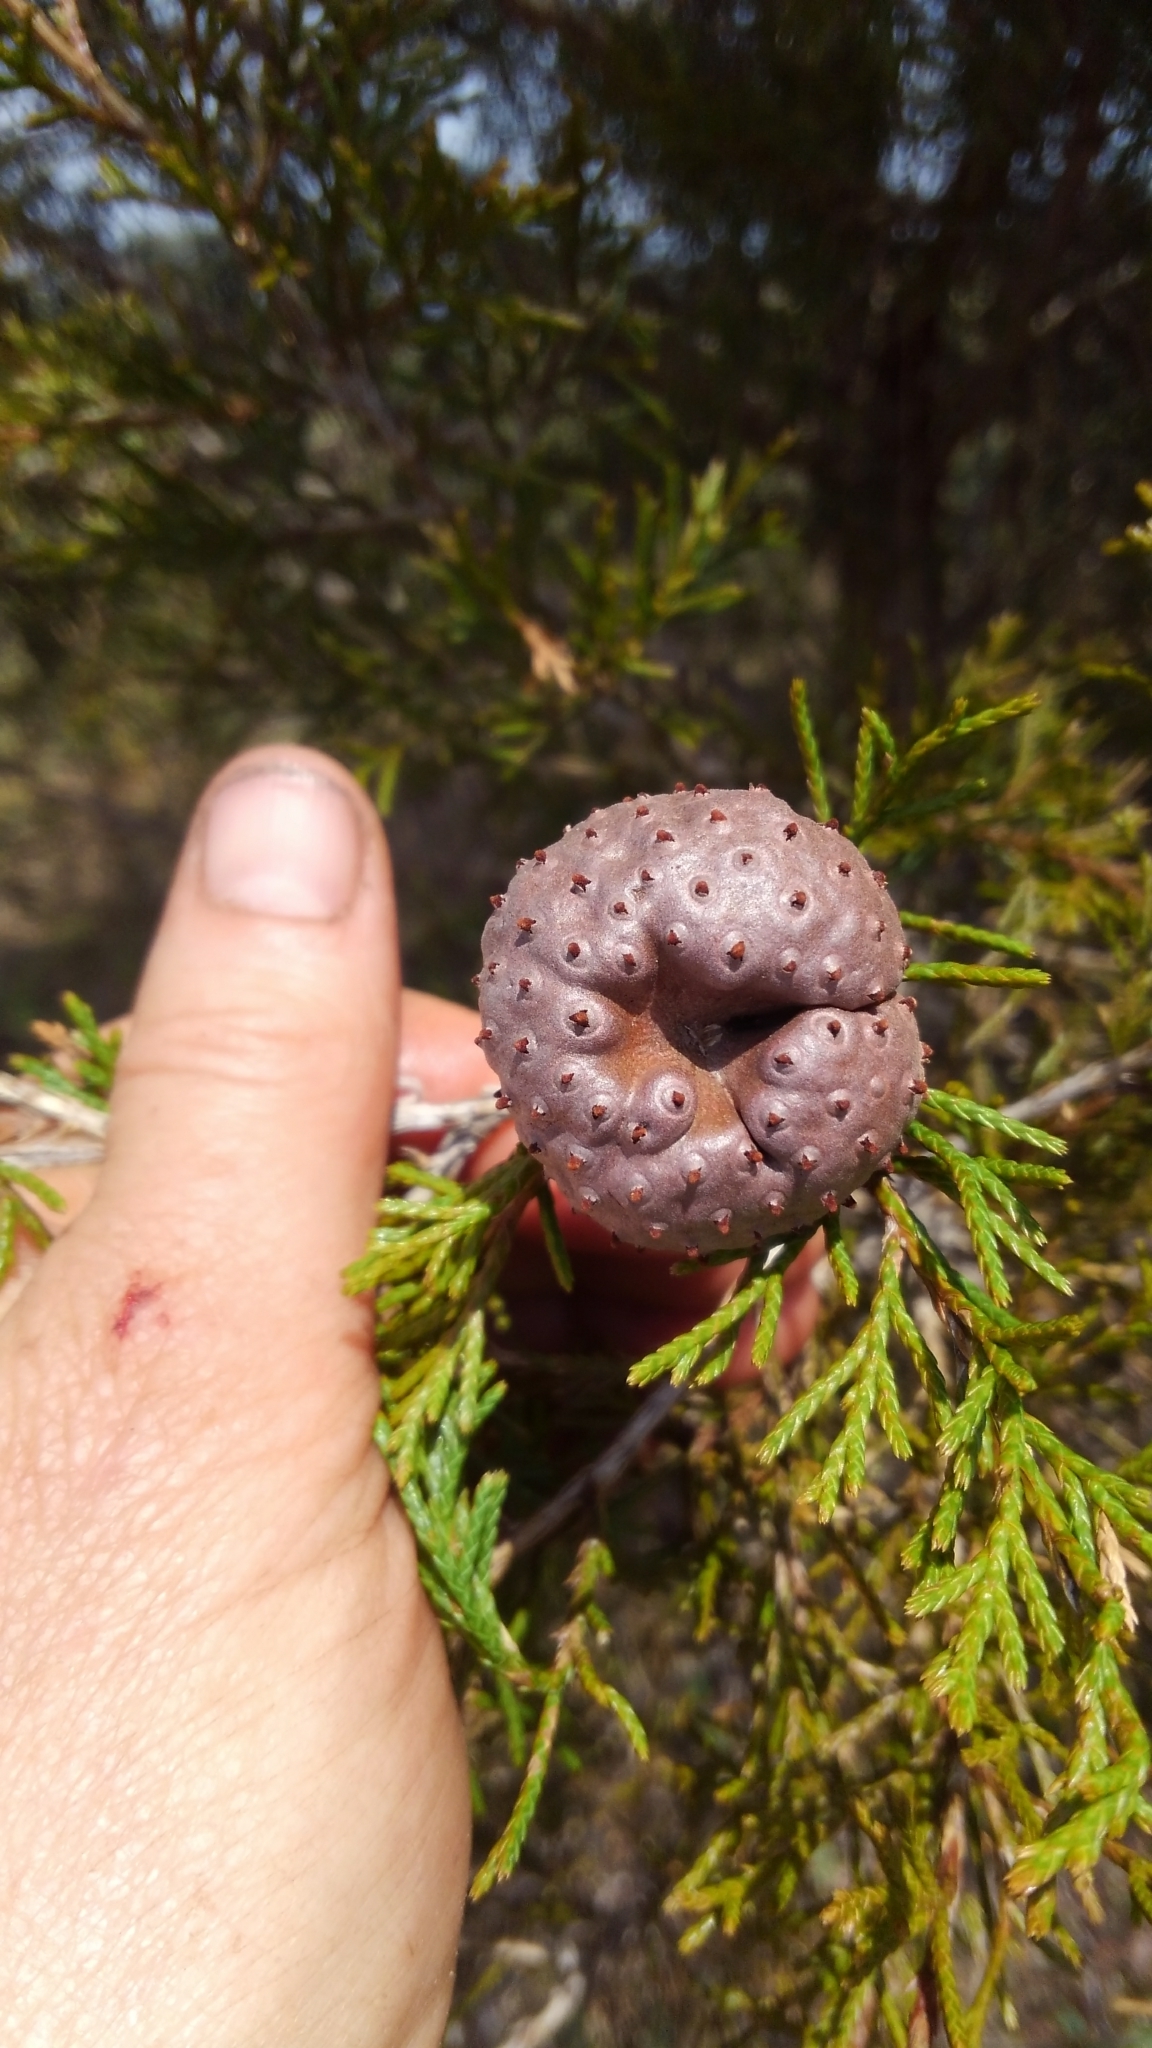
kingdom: Fungi
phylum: Basidiomycota
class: Pucciniomycetes
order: Pucciniales
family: Gymnosporangiaceae
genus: Gymnosporangium
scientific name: Gymnosporangium juniperi-virginianae
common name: Juniper-apple rust
